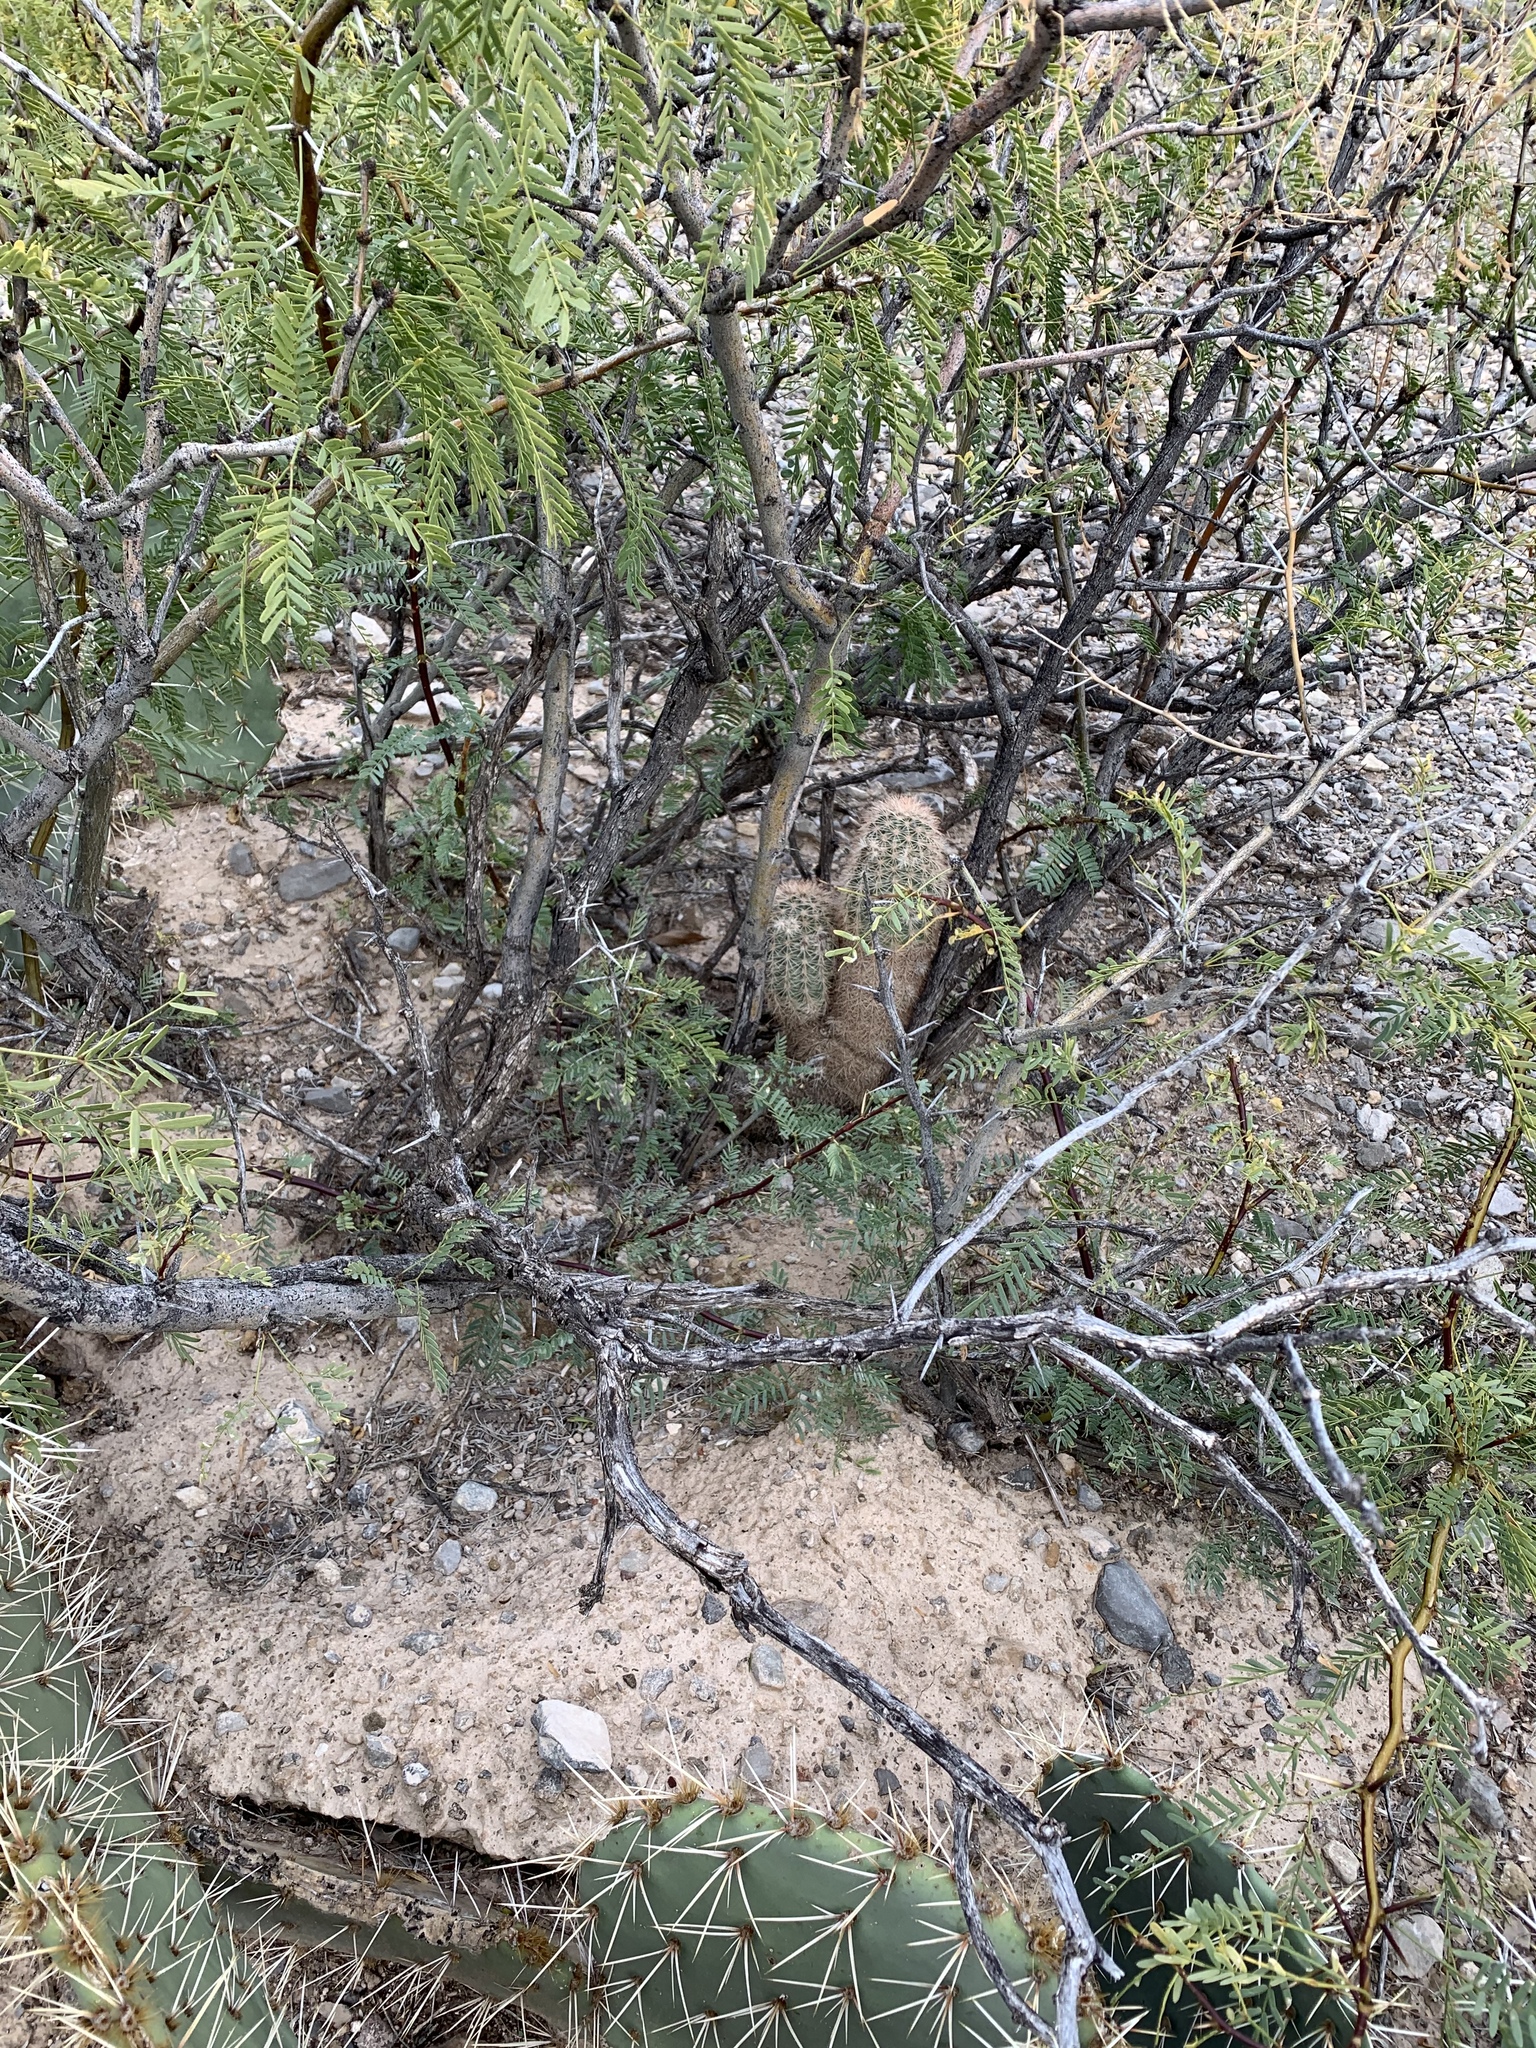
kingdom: Plantae
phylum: Tracheophyta
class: Magnoliopsida
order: Caryophyllales
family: Cactaceae
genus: Echinocereus
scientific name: Echinocereus dasyacanthus
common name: Spiny hedgehog cactus
